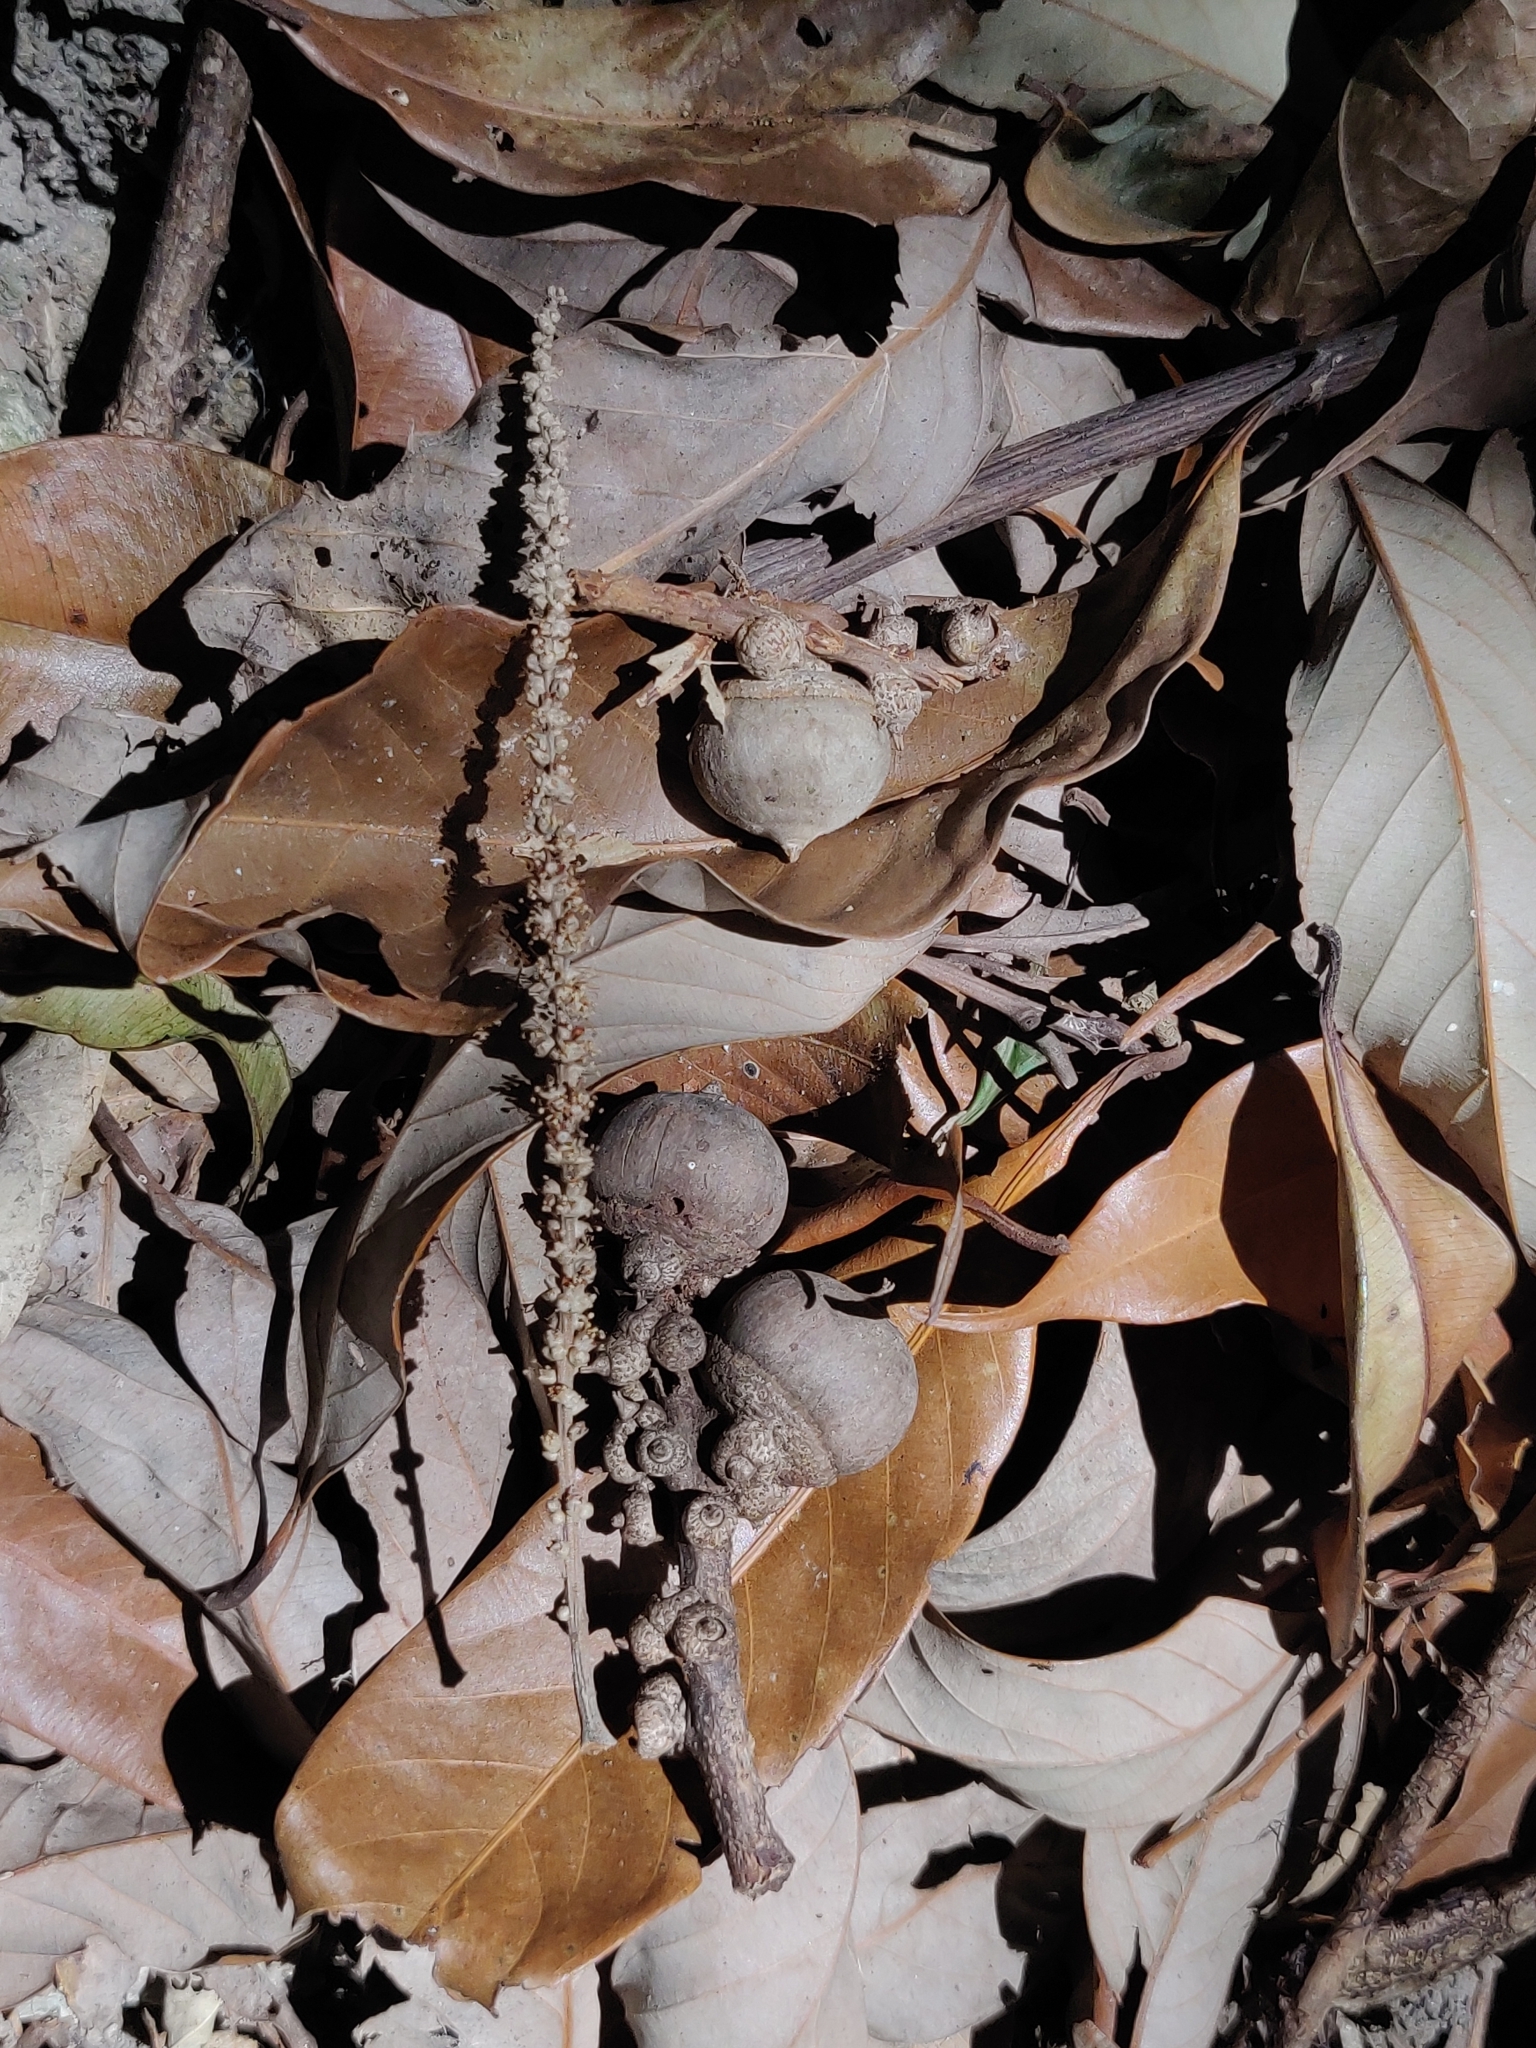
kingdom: Plantae
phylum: Tracheophyta
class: Magnoliopsida
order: Fagales
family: Fagaceae
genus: Lithocarpus
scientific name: Lithocarpus elegans
